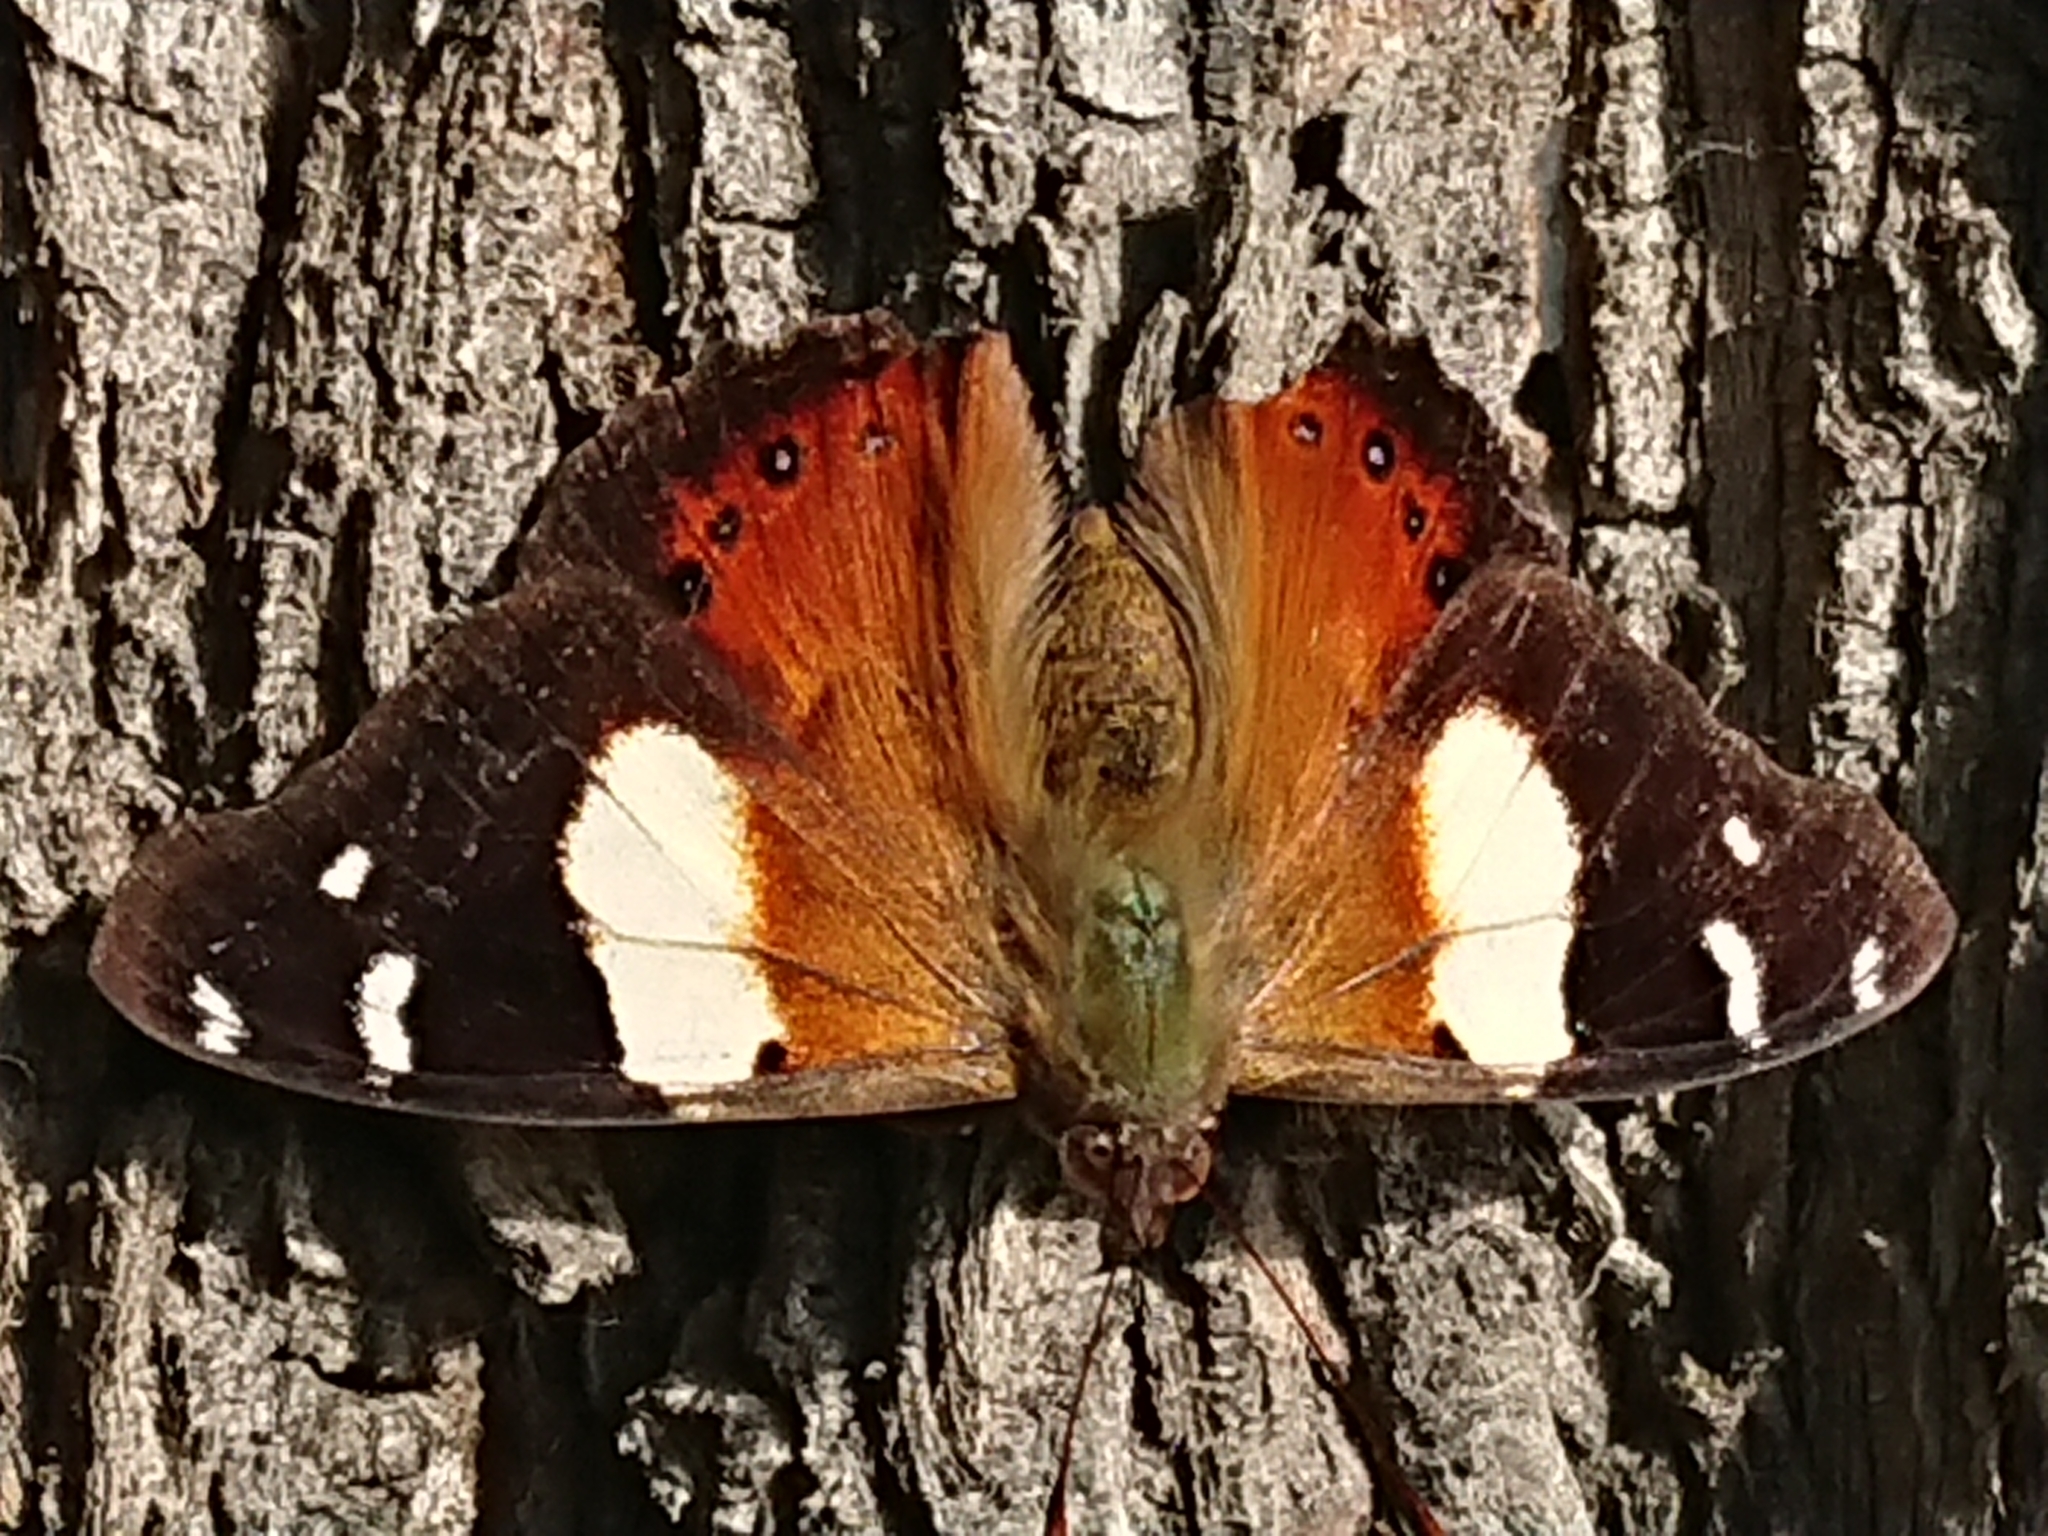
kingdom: Animalia
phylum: Arthropoda
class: Insecta
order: Lepidoptera
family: Nymphalidae
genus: Vanessa
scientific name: Vanessa itea
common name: Yellow admiral
